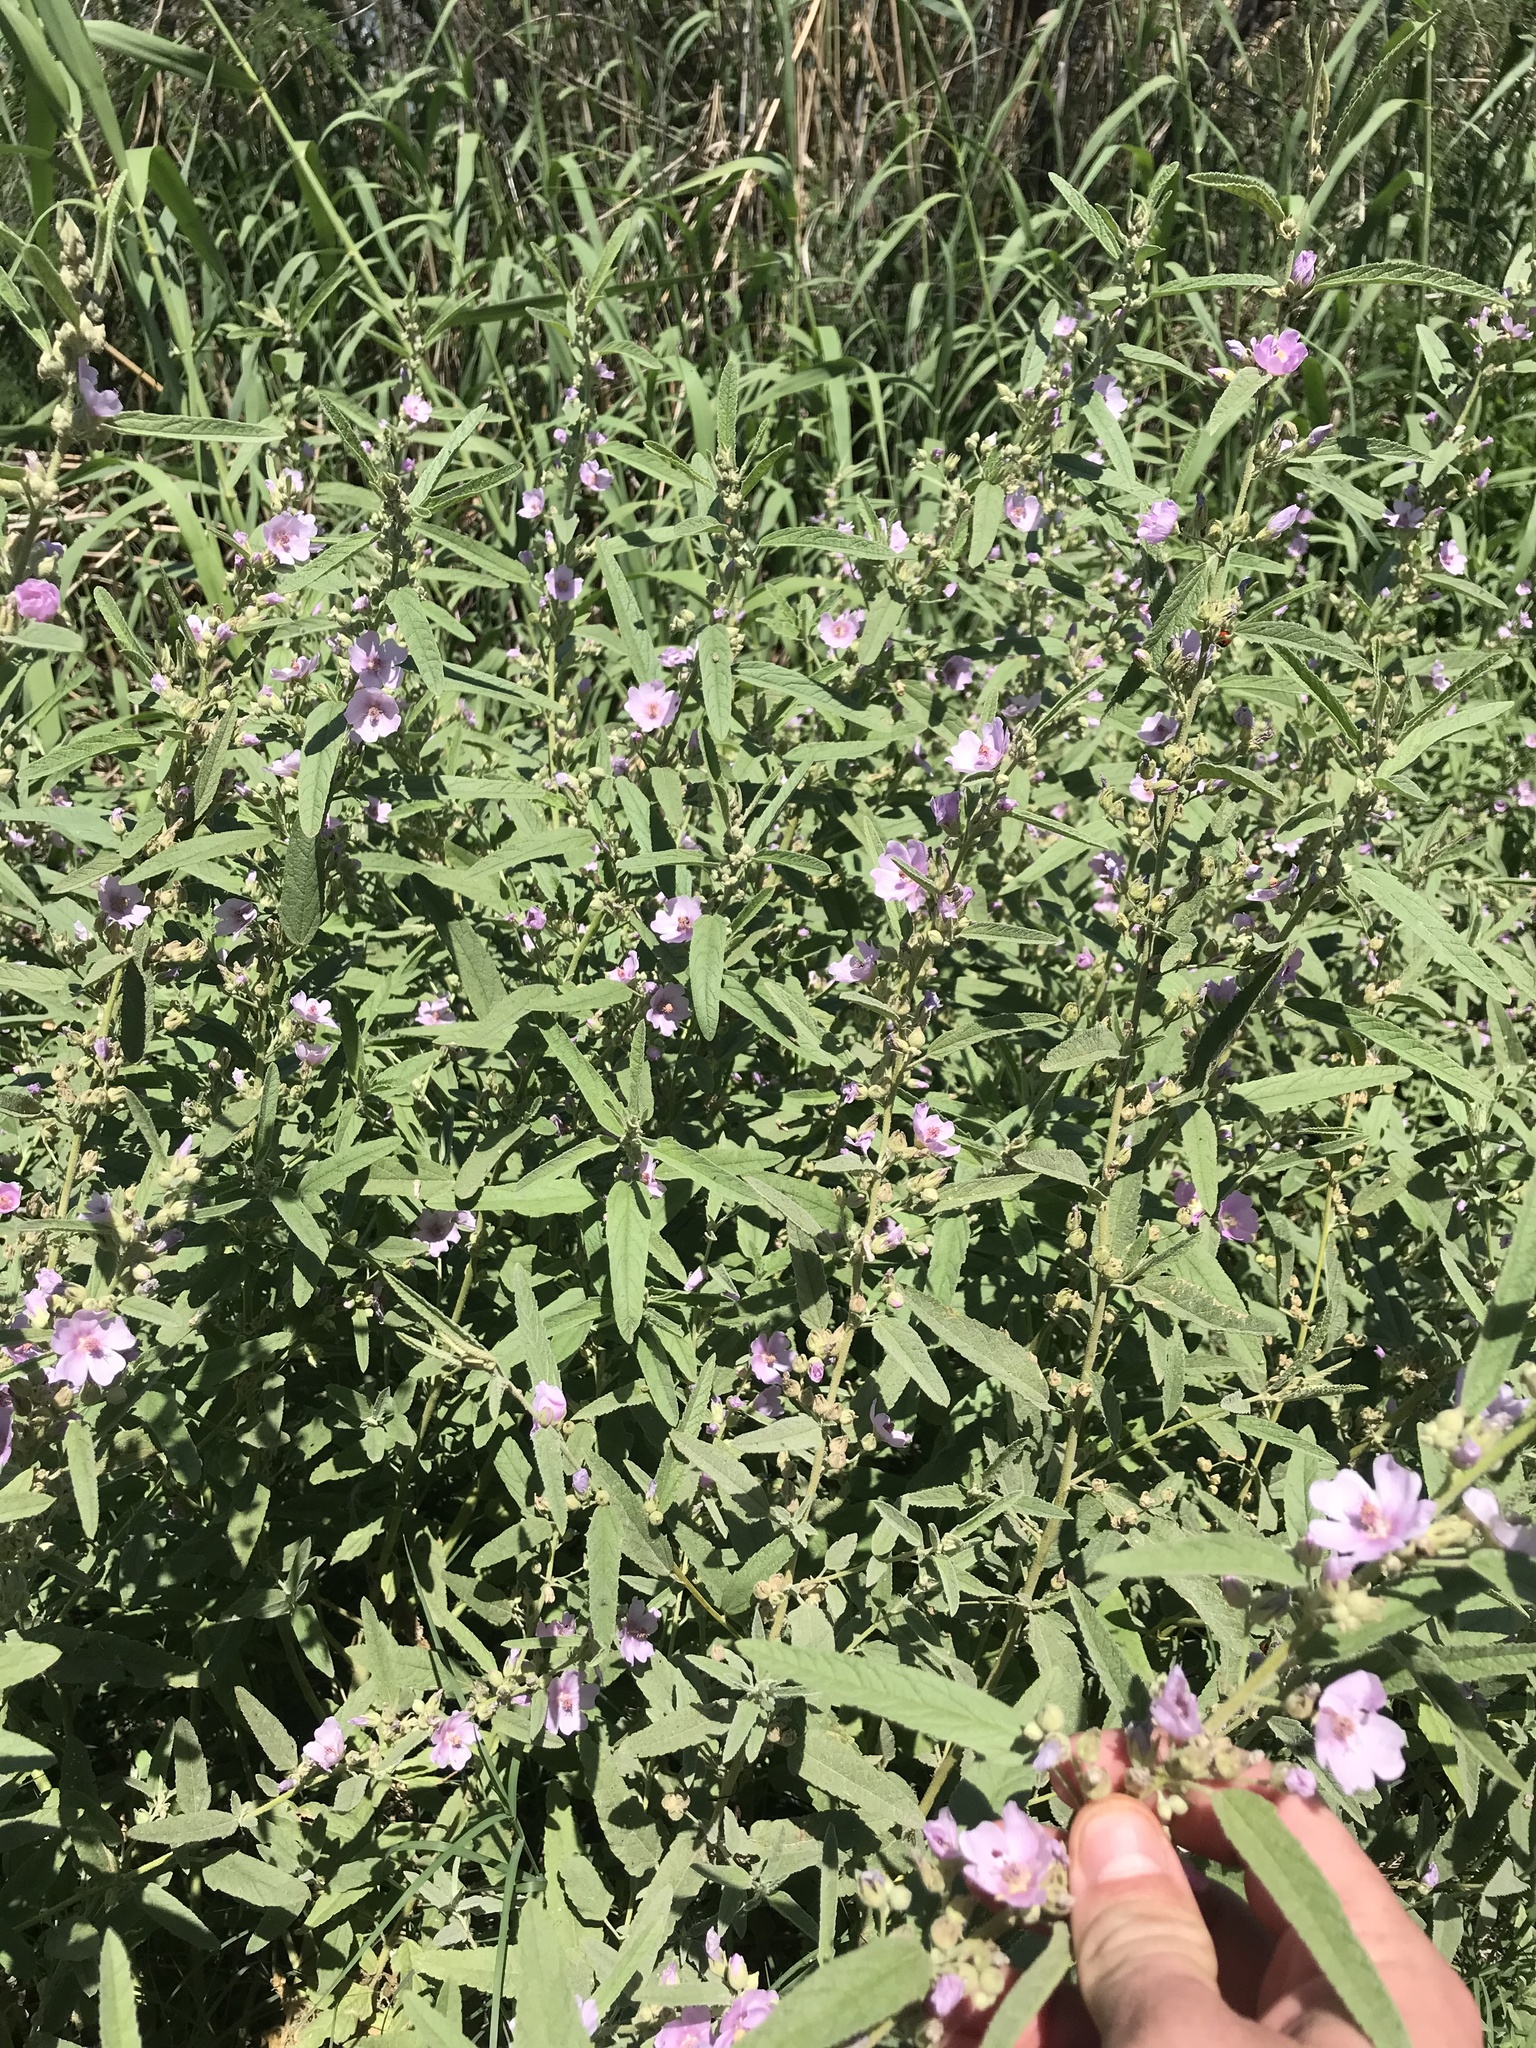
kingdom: Plantae
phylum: Tracheophyta
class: Magnoliopsida
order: Malvales
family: Malvaceae
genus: Sphaeralcea
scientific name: Sphaeralcea angustifolia
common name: Copper globe-mallow
